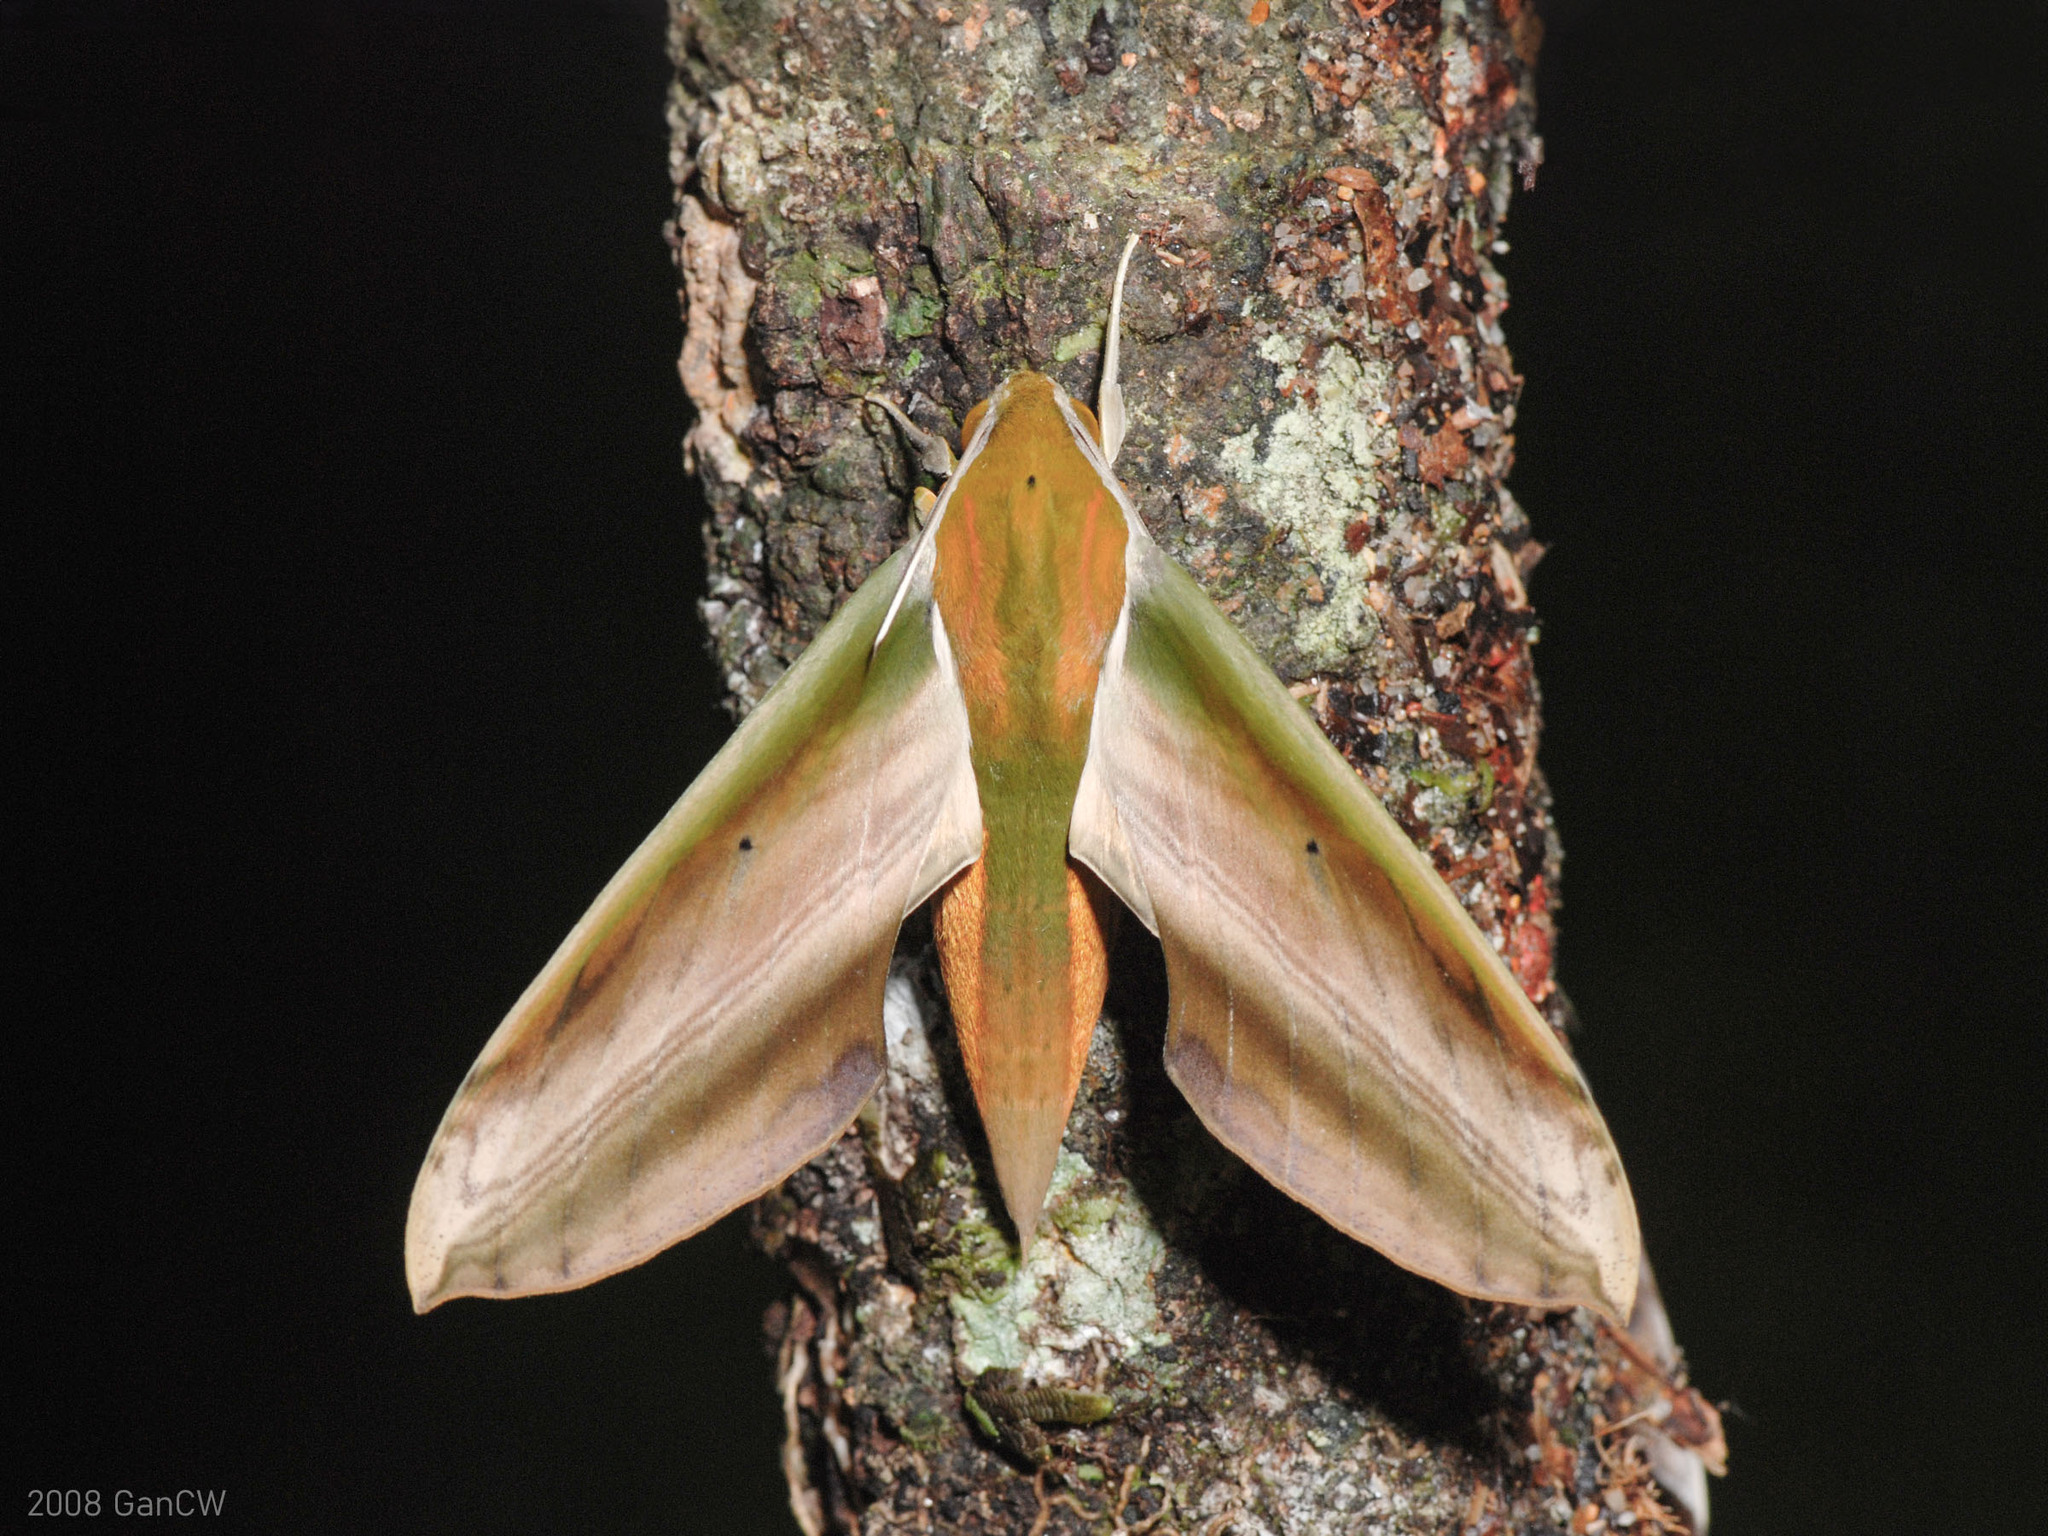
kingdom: Animalia
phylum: Arthropoda
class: Insecta
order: Lepidoptera
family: Sphingidae
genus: Theretra
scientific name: Theretra nessus
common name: Yam hawk moth
